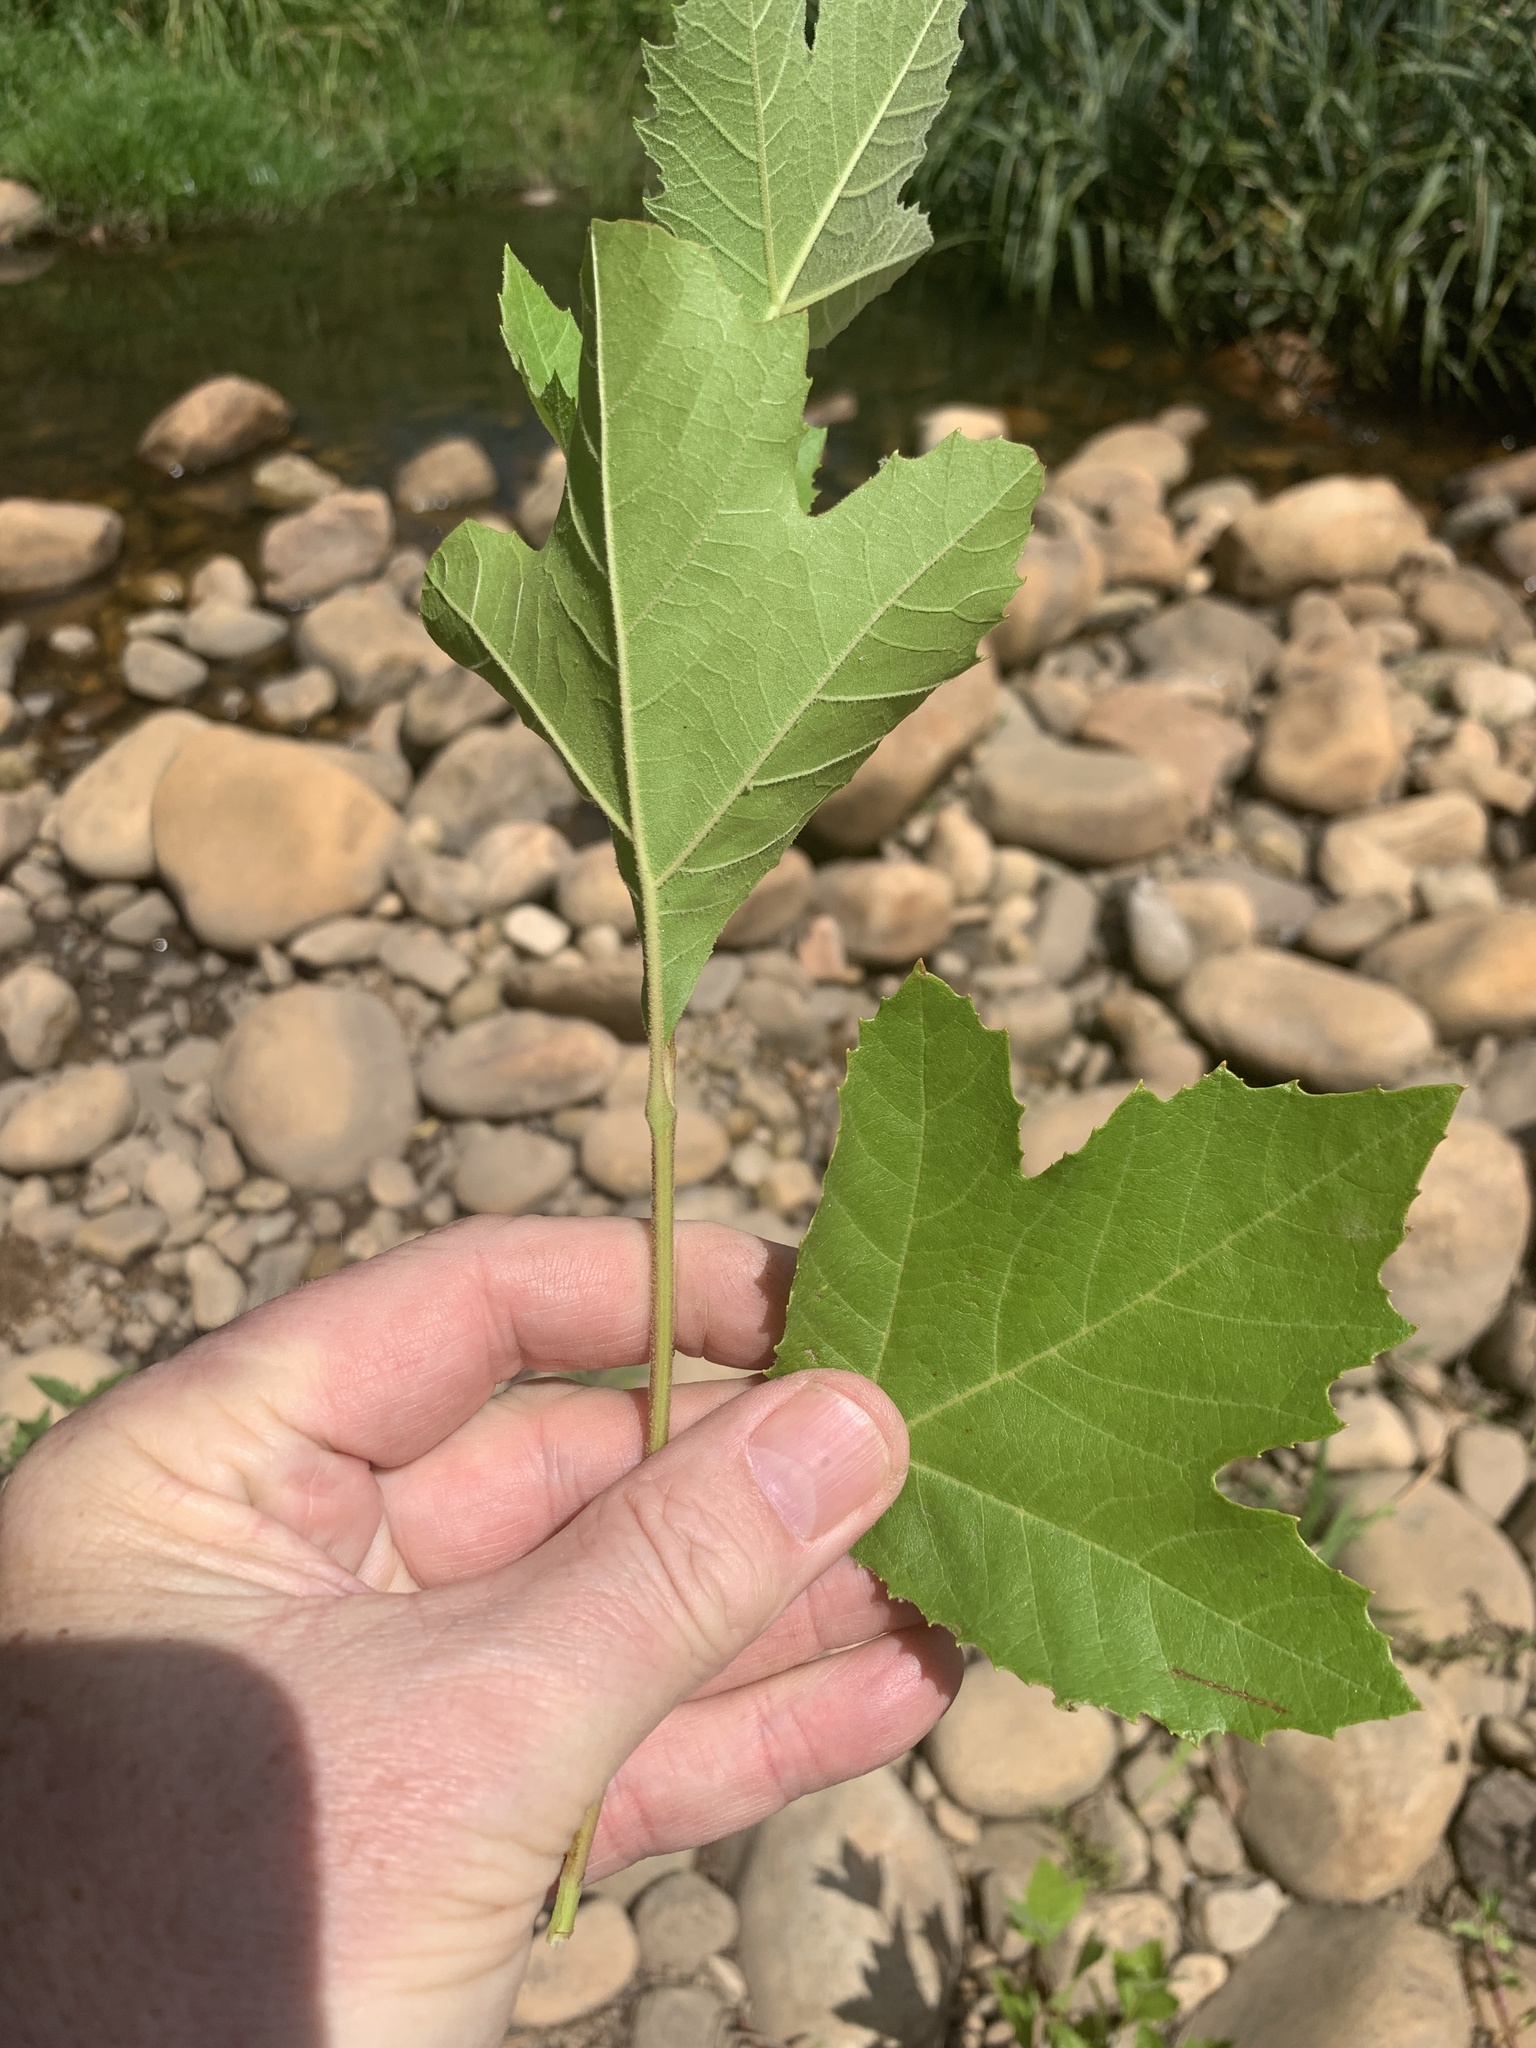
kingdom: Plantae
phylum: Tracheophyta
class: Magnoliopsida
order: Proteales
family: Platanaceae
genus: Platanus
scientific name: Platanus hispanica
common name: London plane
